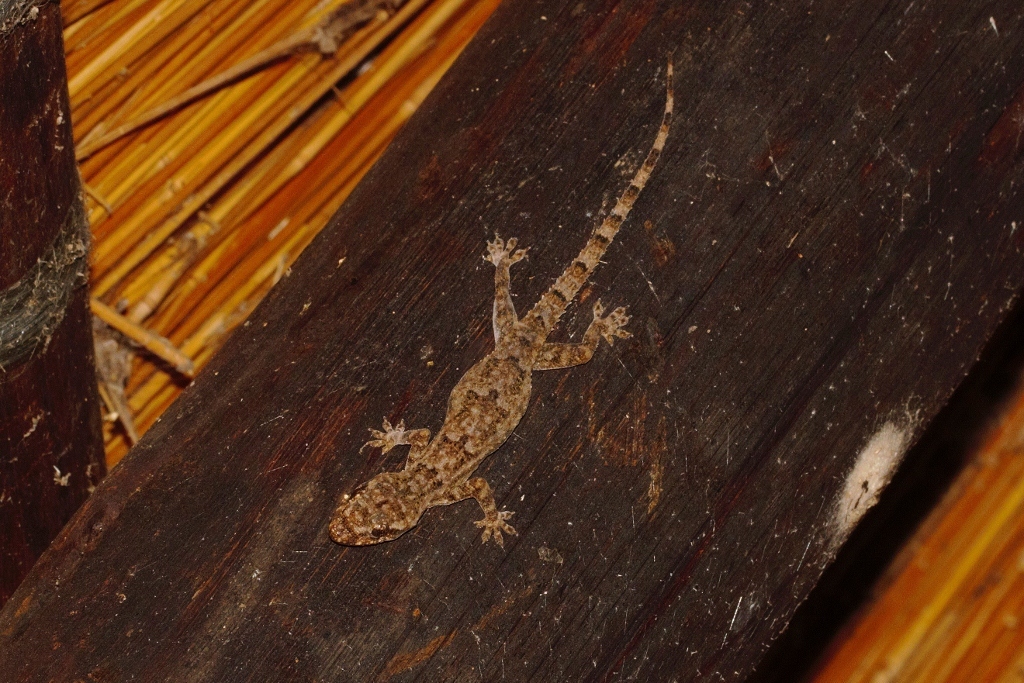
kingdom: Animalia
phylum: Chordata
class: Squamata
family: Gekkonidae
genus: Hemidactylus
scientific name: Hemidactylus mabouia
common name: House gecko
